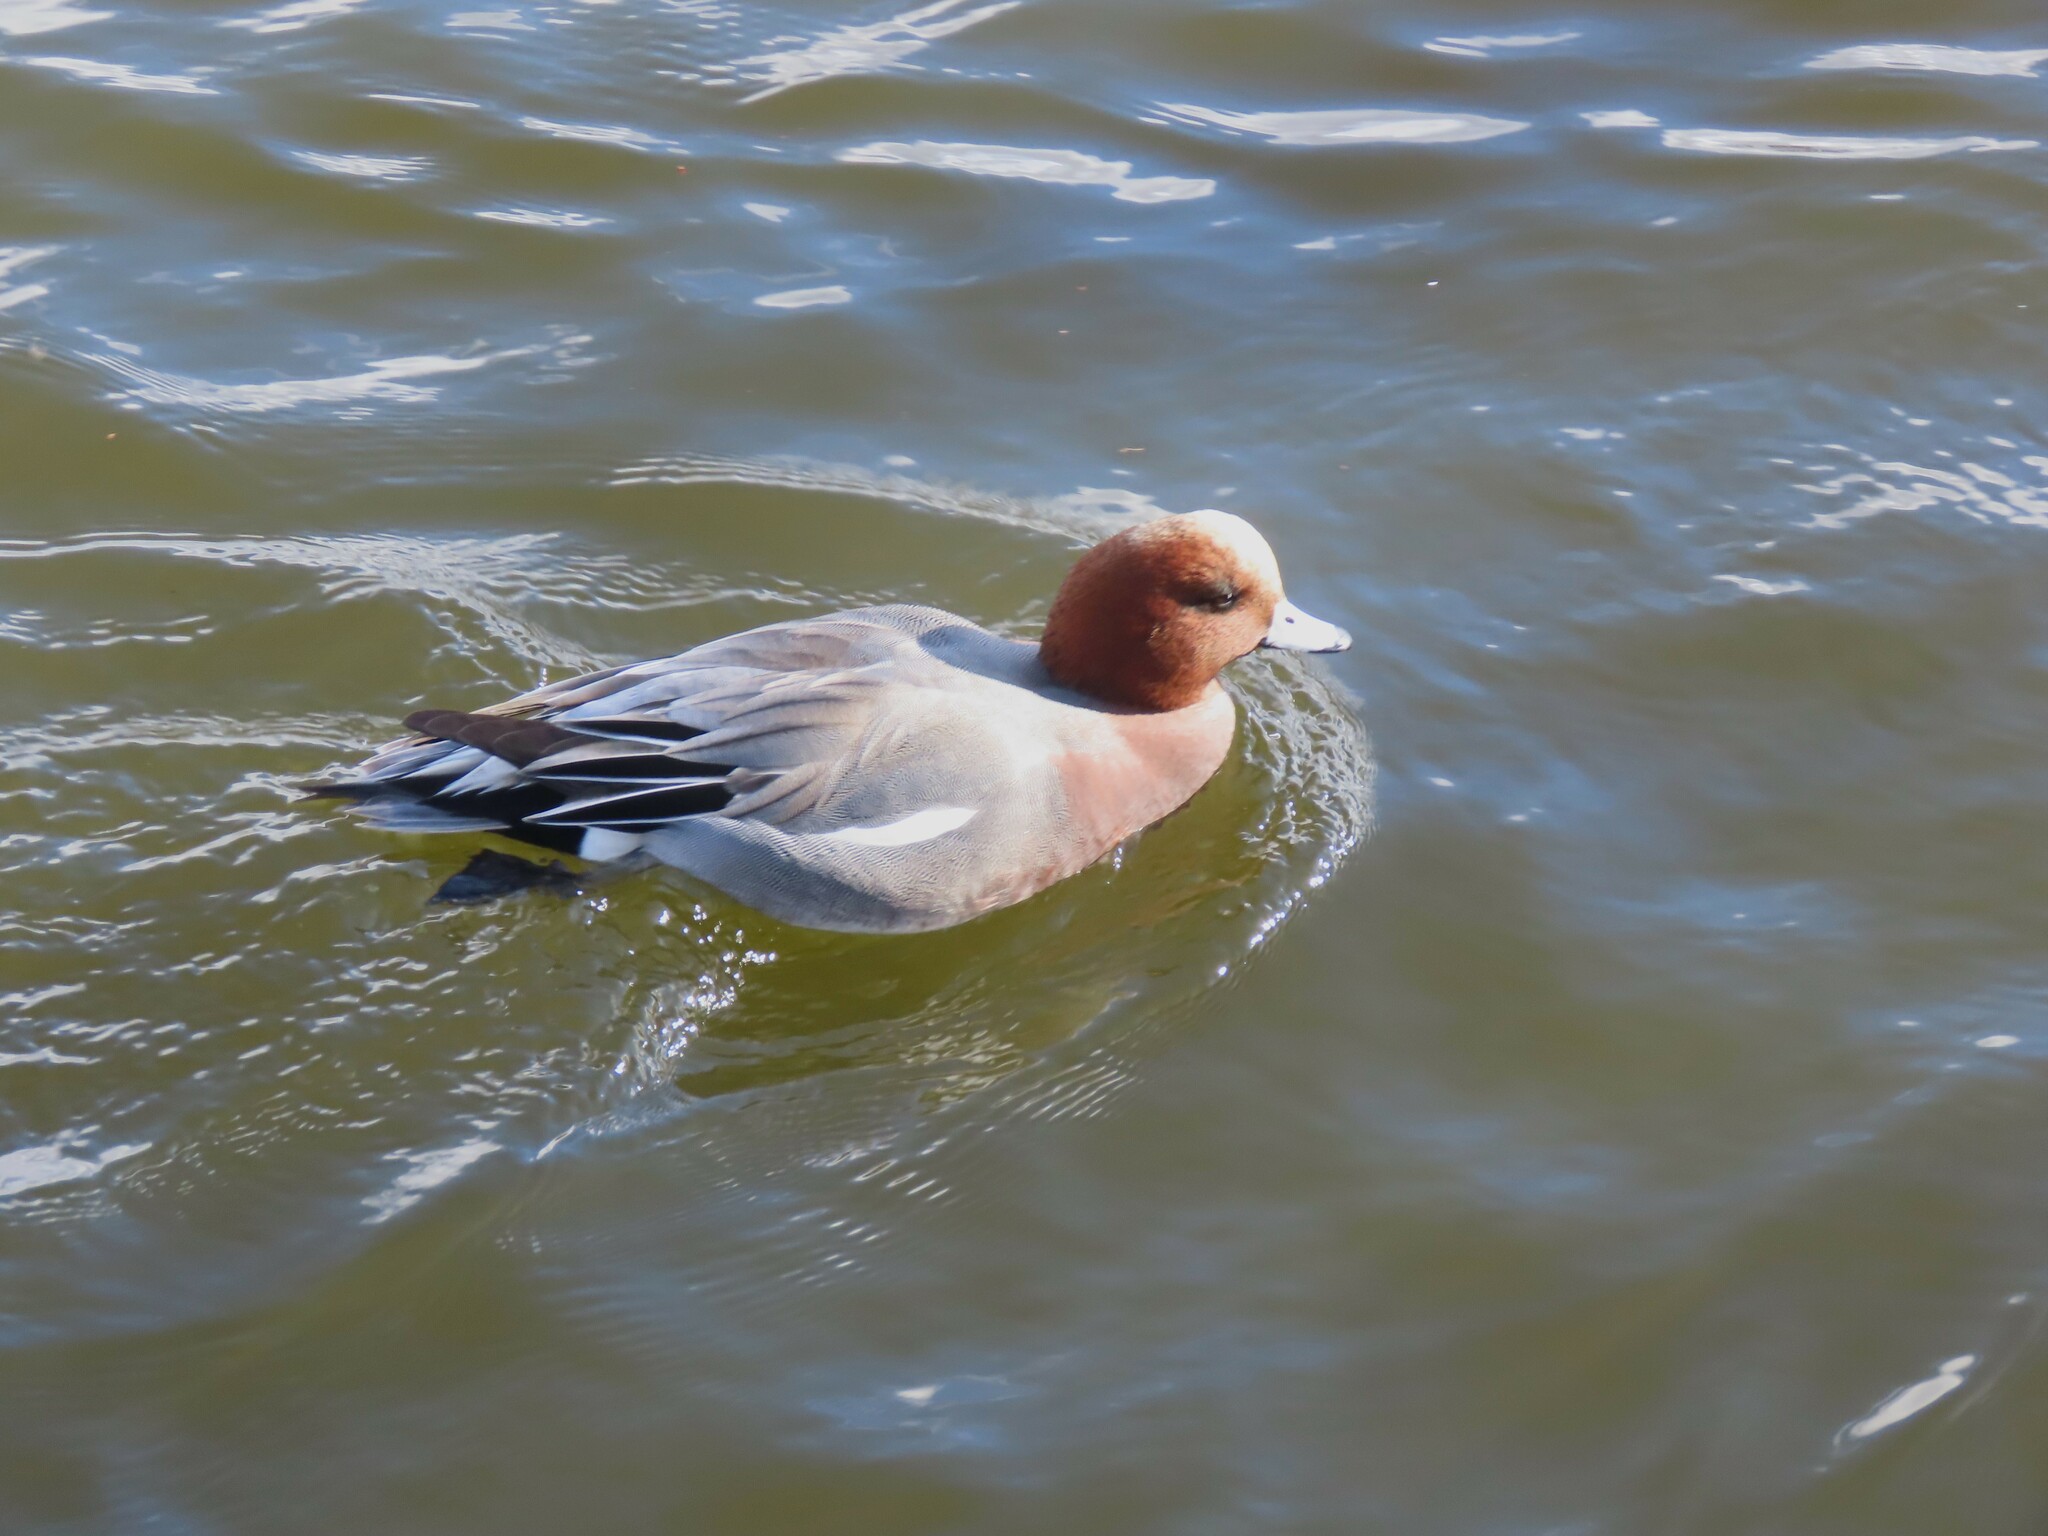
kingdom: Animalia
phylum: Chordata
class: Aves
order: Anseriformes
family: Anatidae
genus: Mareca
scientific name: Mareca penelope
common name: Eurasian wigeon
